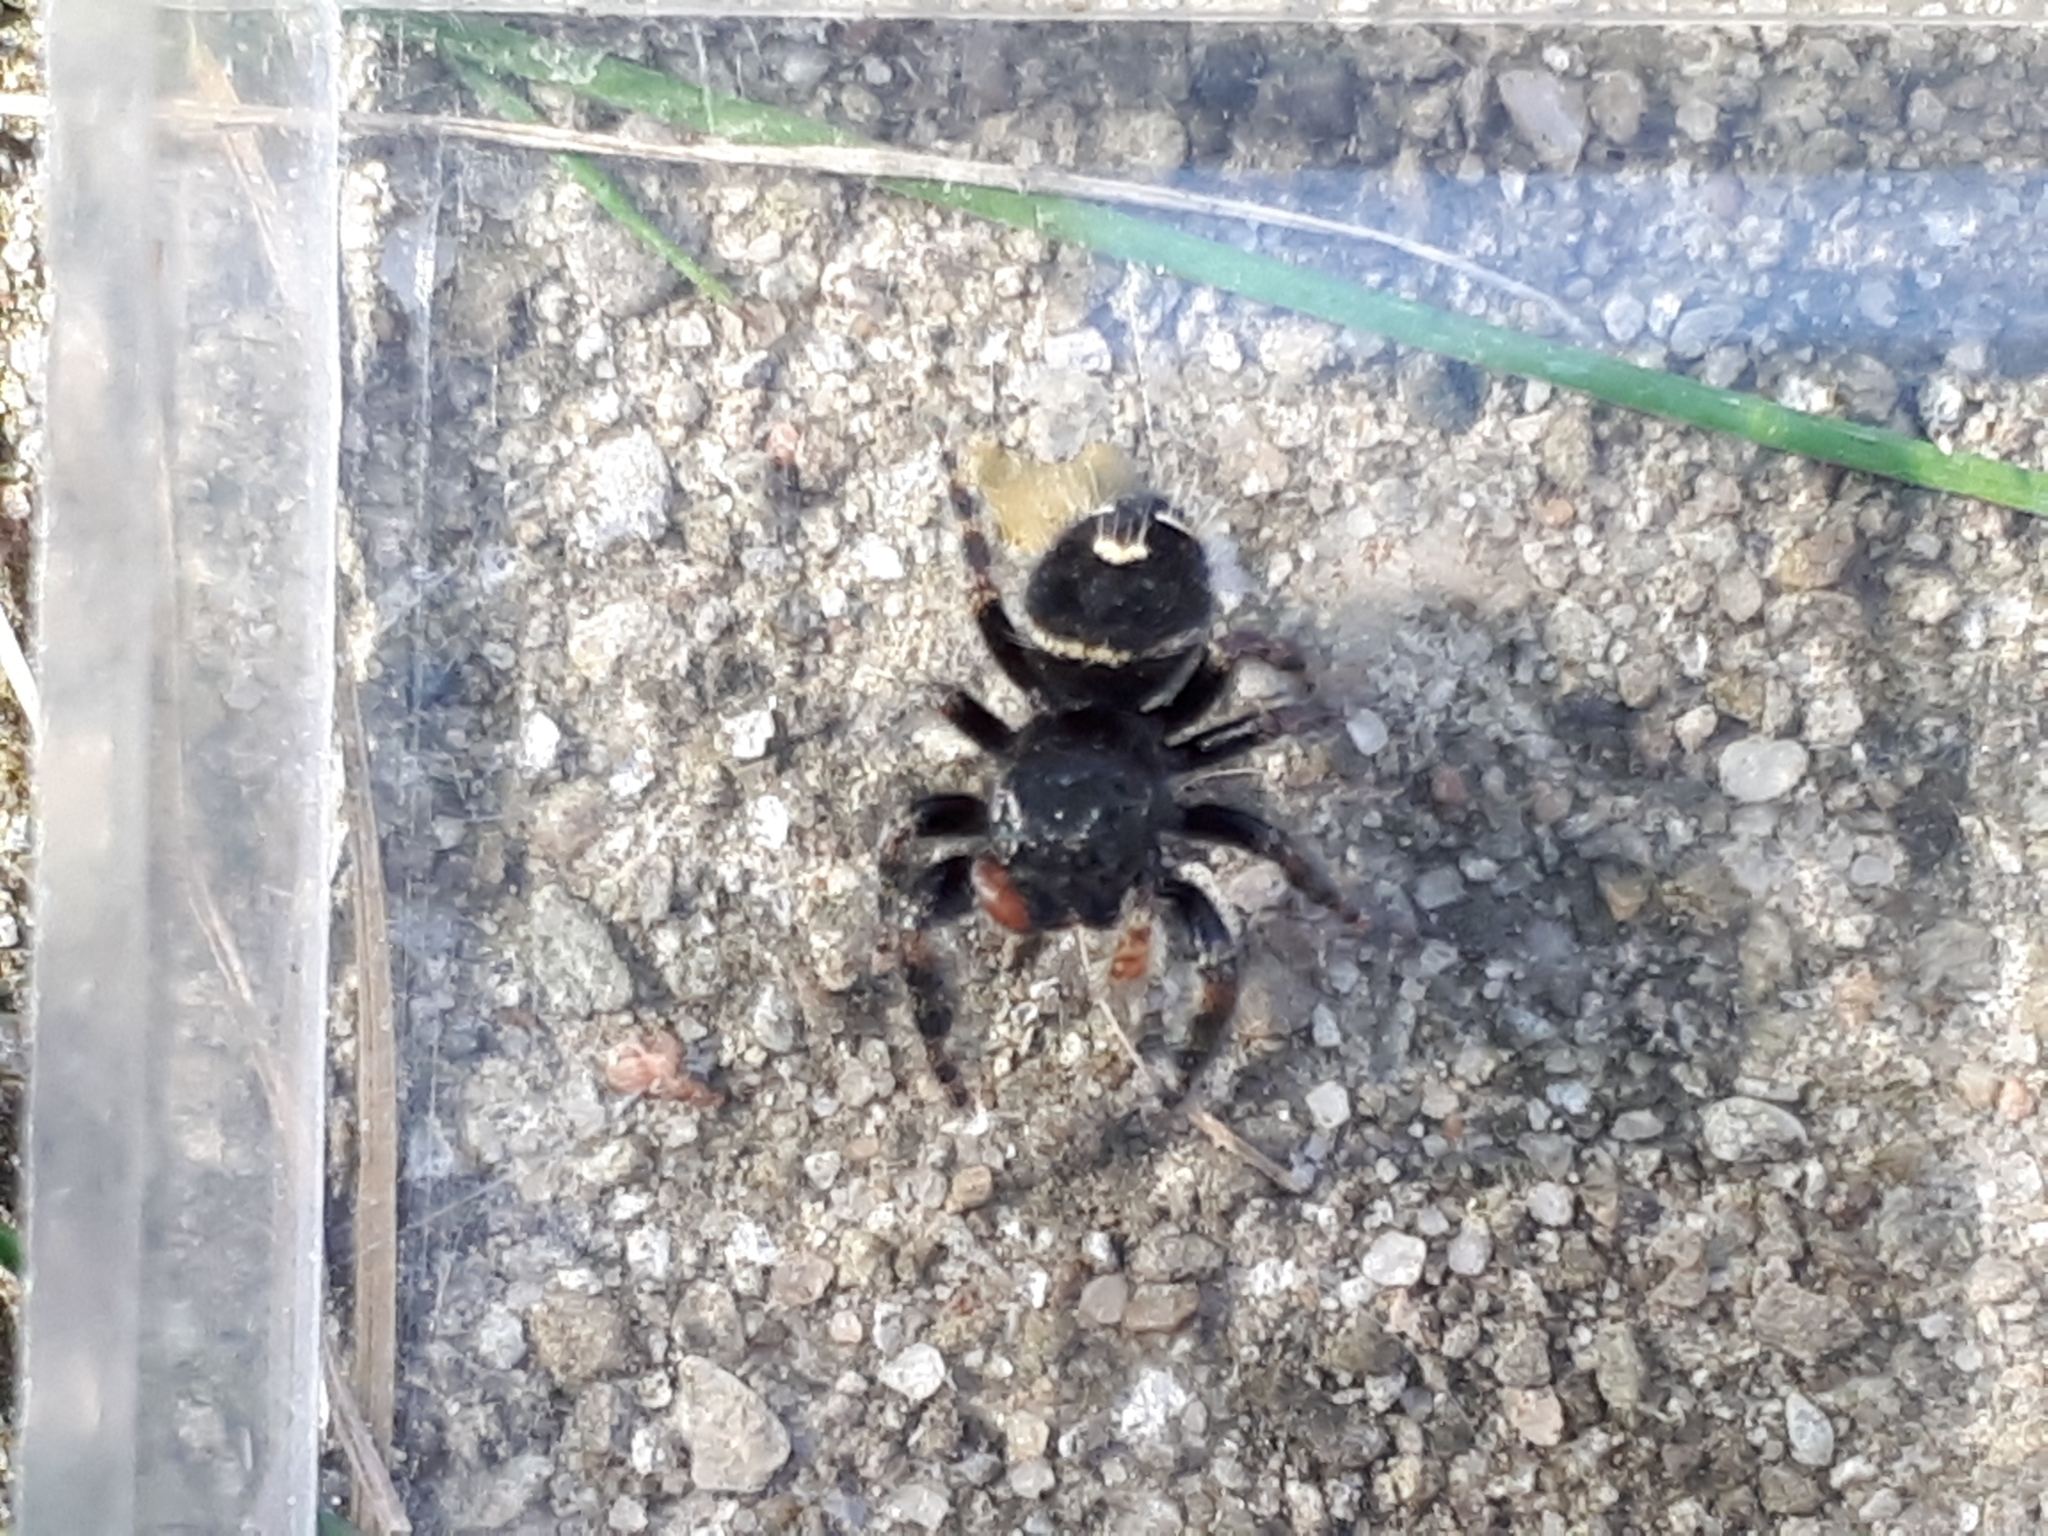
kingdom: Animalia
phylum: Arthropoda
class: Arachnida
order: Araneae
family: Salticidae
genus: Phidippus
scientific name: Phidippus audax
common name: Bold jumper
